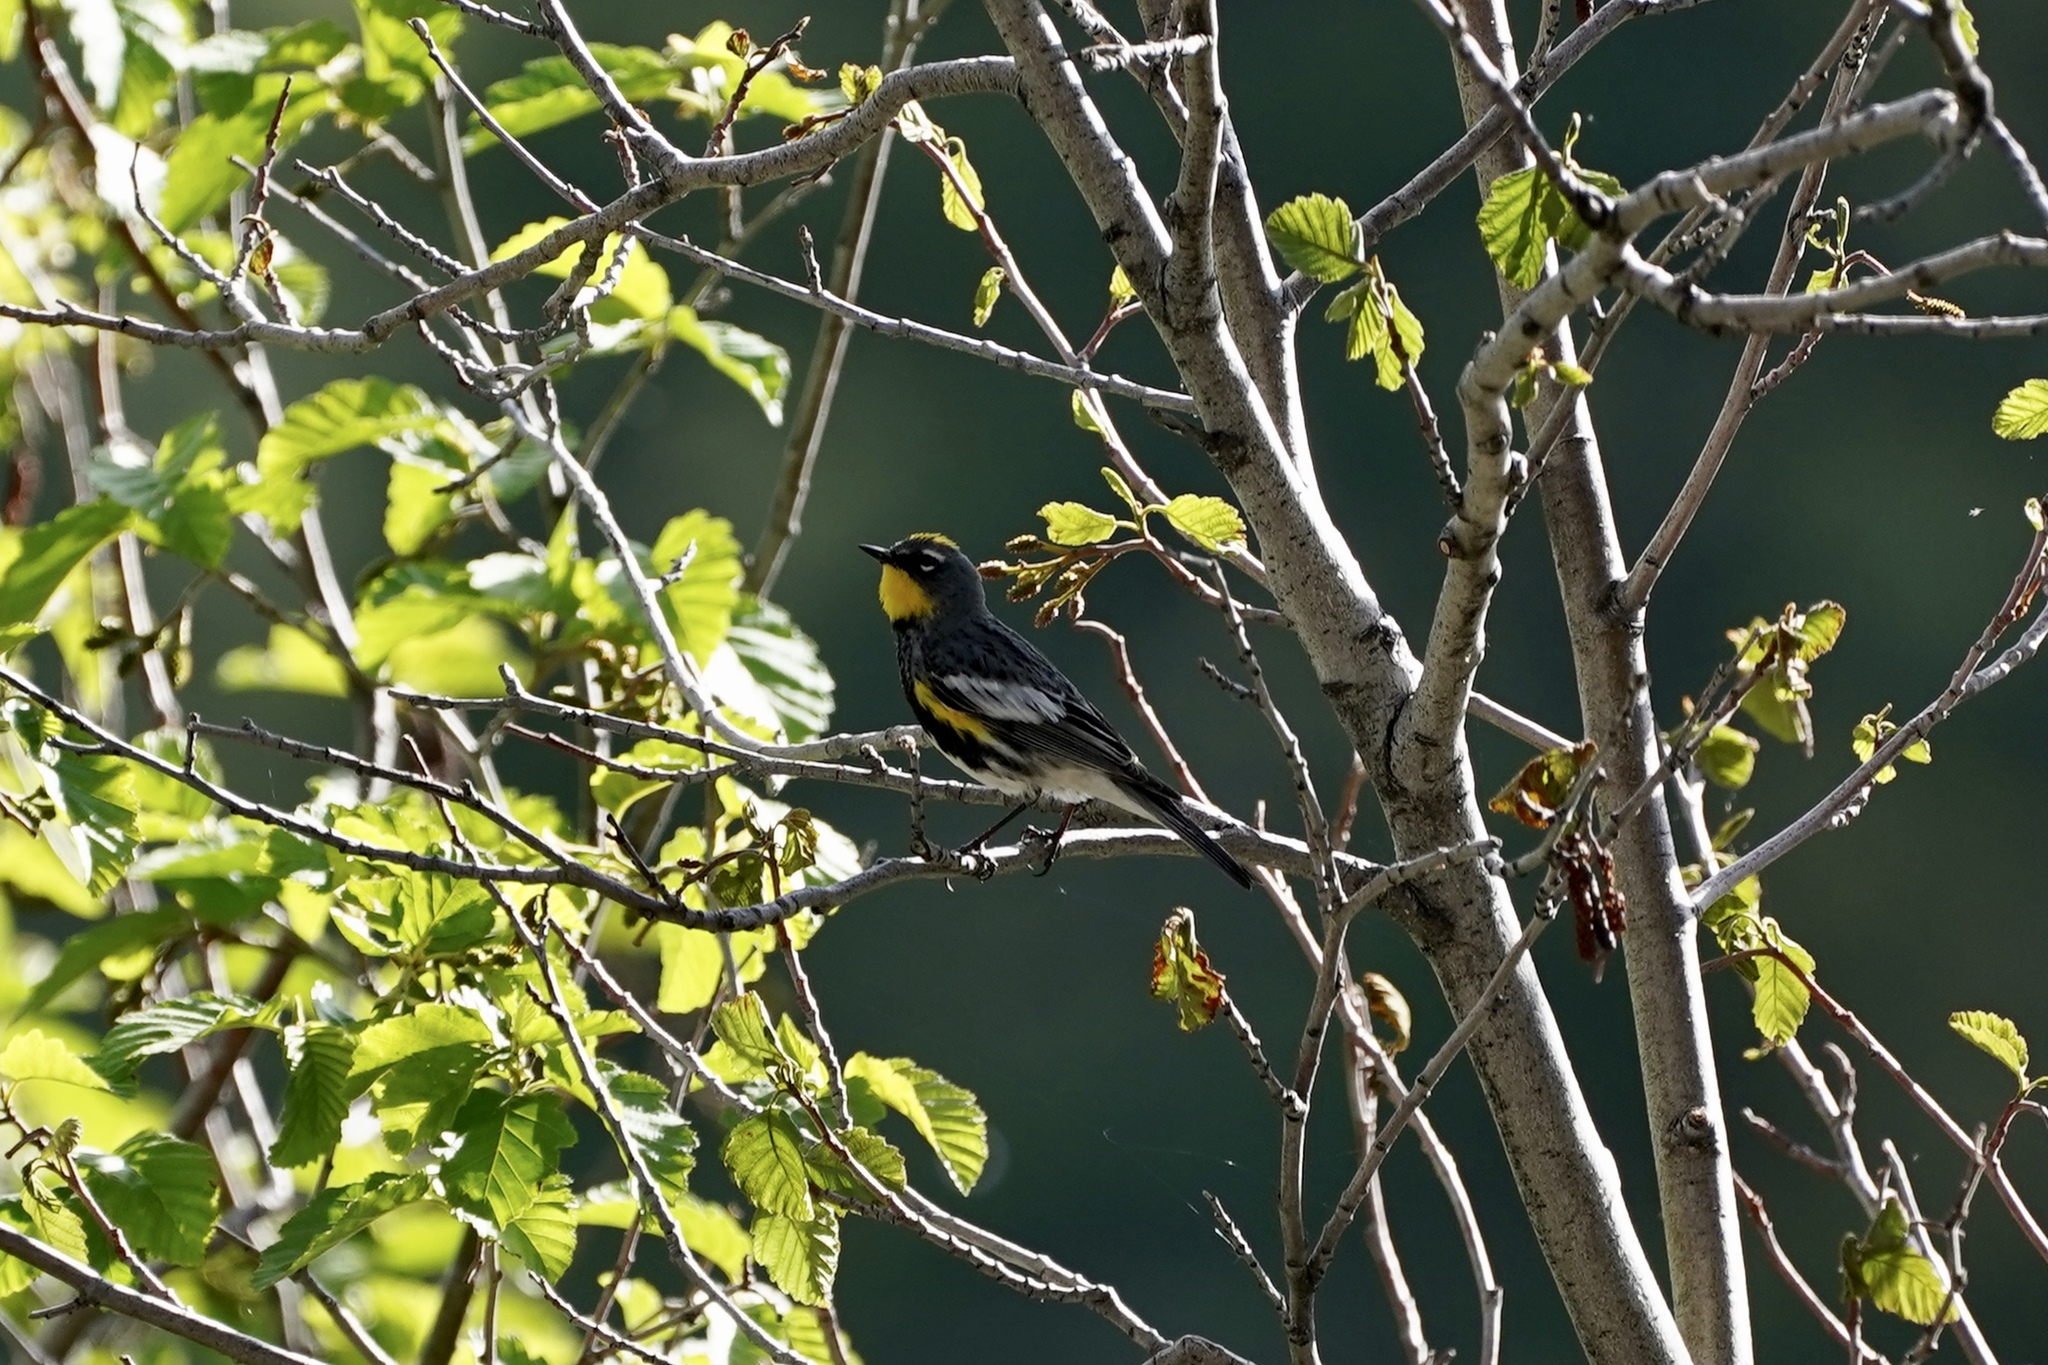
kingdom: Animalia
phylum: Chordata
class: Aves
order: Passeriformes
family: Parulidae
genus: Setophaga
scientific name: Setophaga auduboni
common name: Audubon's warbler
